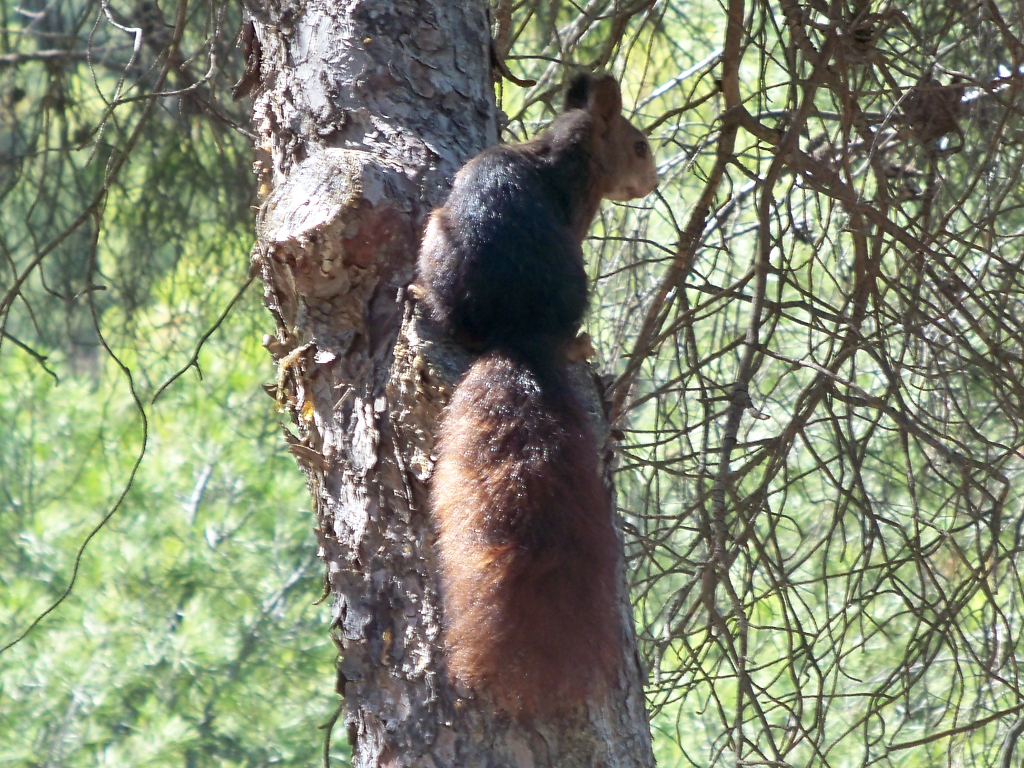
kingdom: Animalia
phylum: Chordata
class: Mammalia
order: Rodentia
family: Sciuridae
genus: Sciurus
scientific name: Sciurus vulgaris
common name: Eurasian red squirrel
